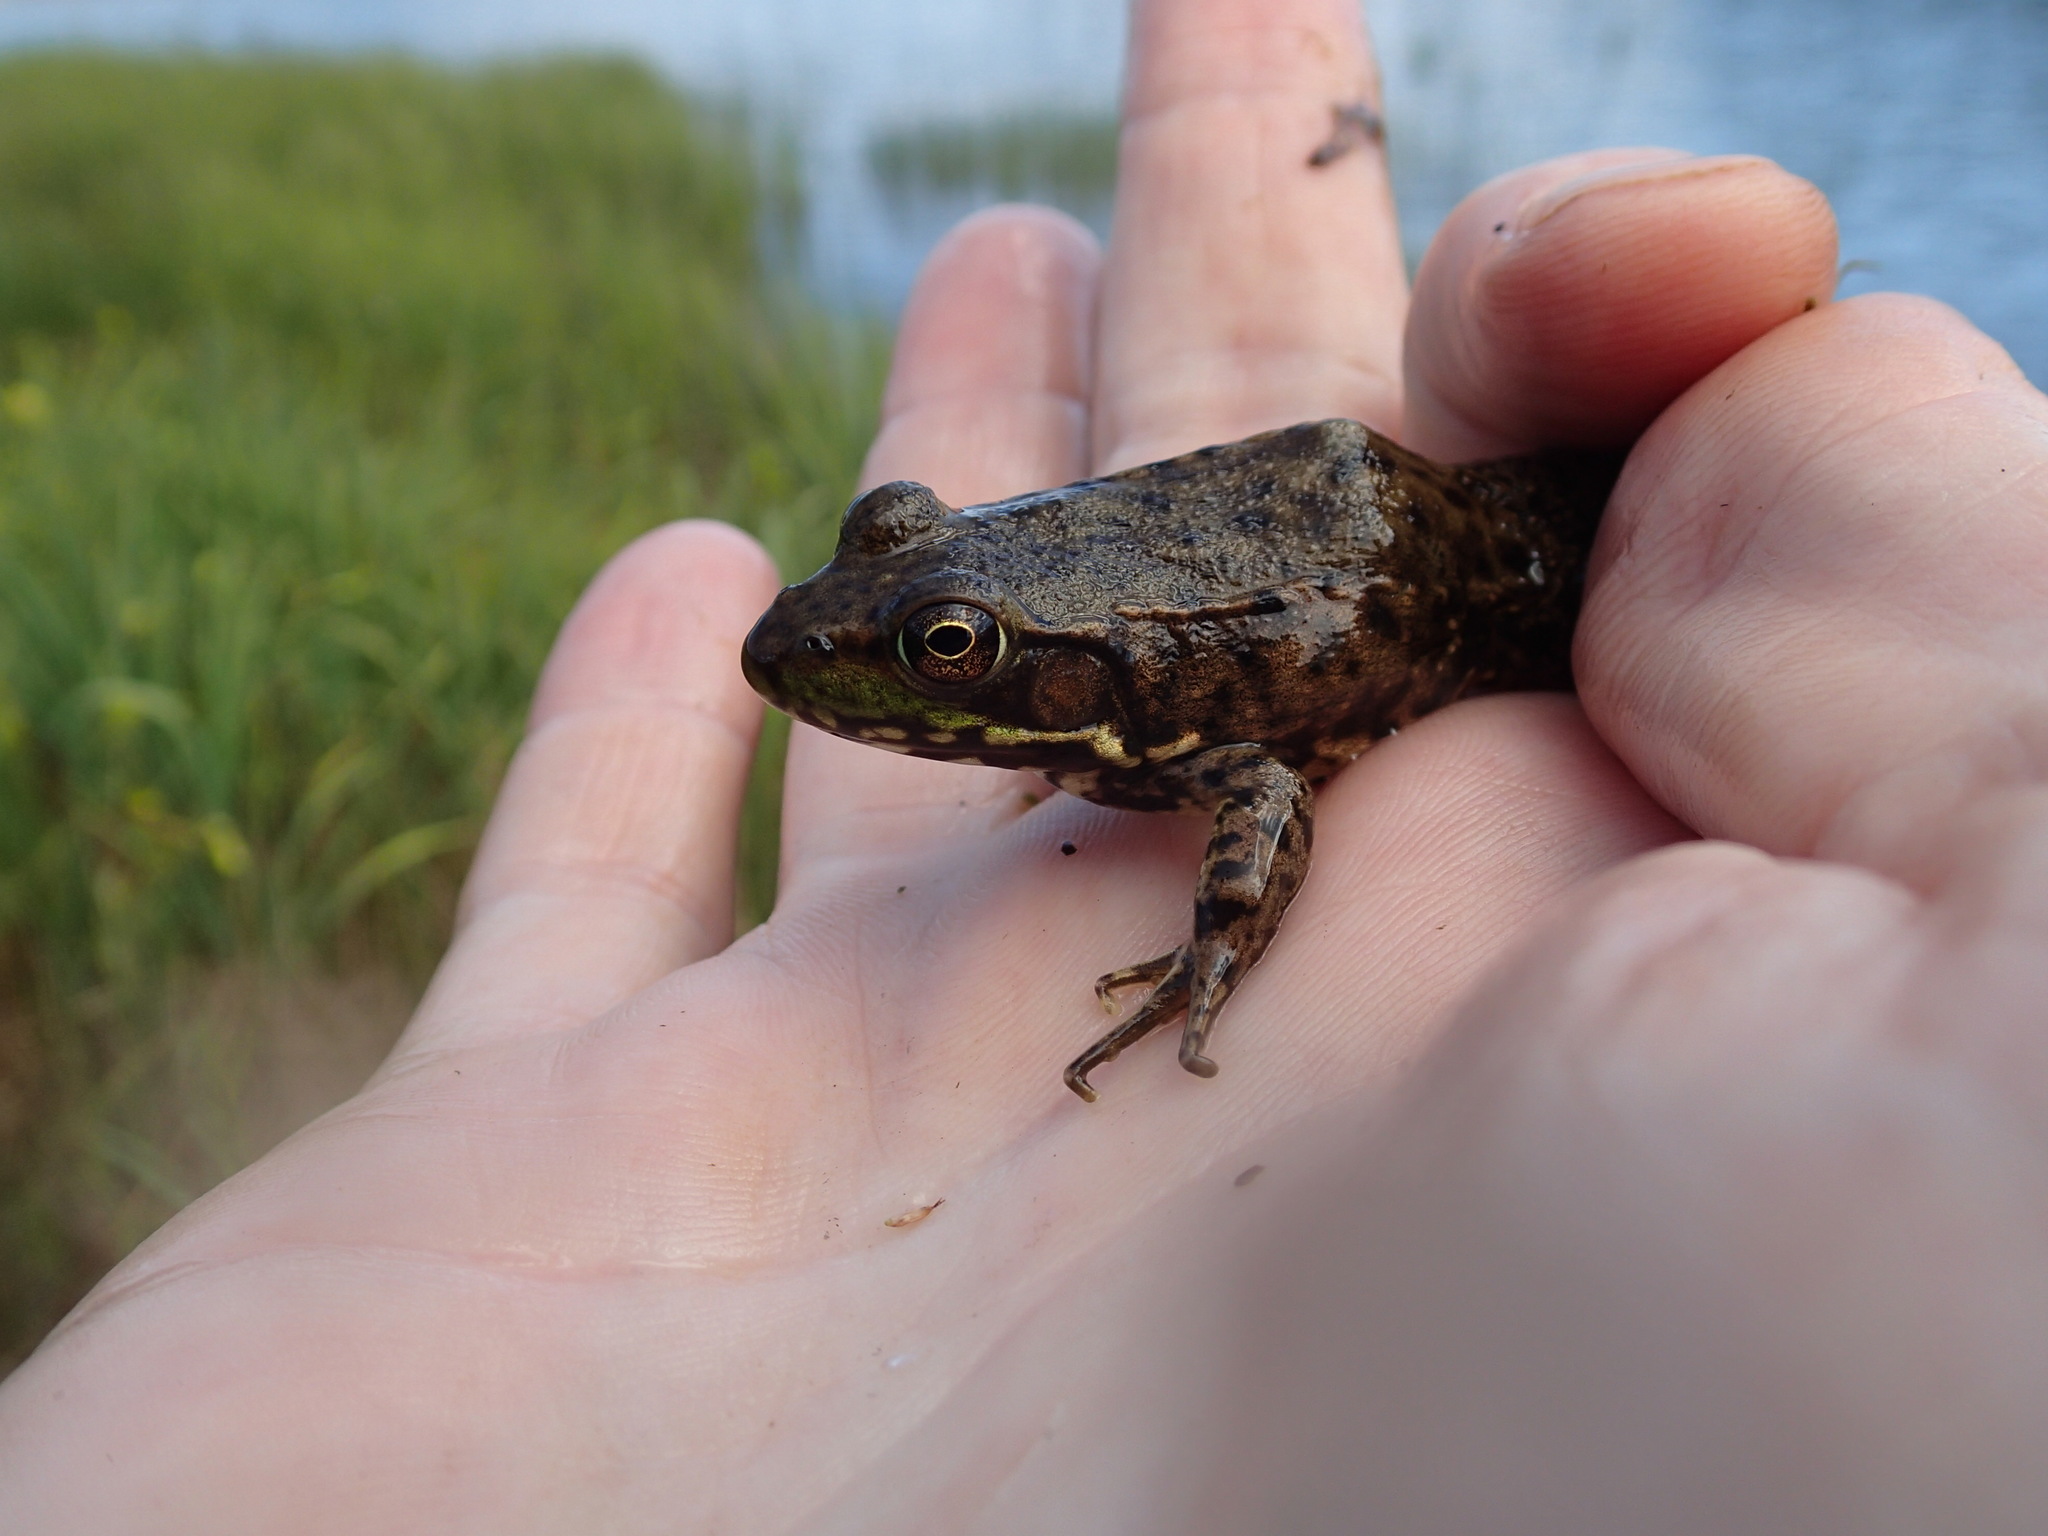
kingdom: Animalia
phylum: Chordata
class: Amphibia
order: Anura
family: Ranidae
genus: Lithobates
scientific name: Lithobates clamitans
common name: Green frog
